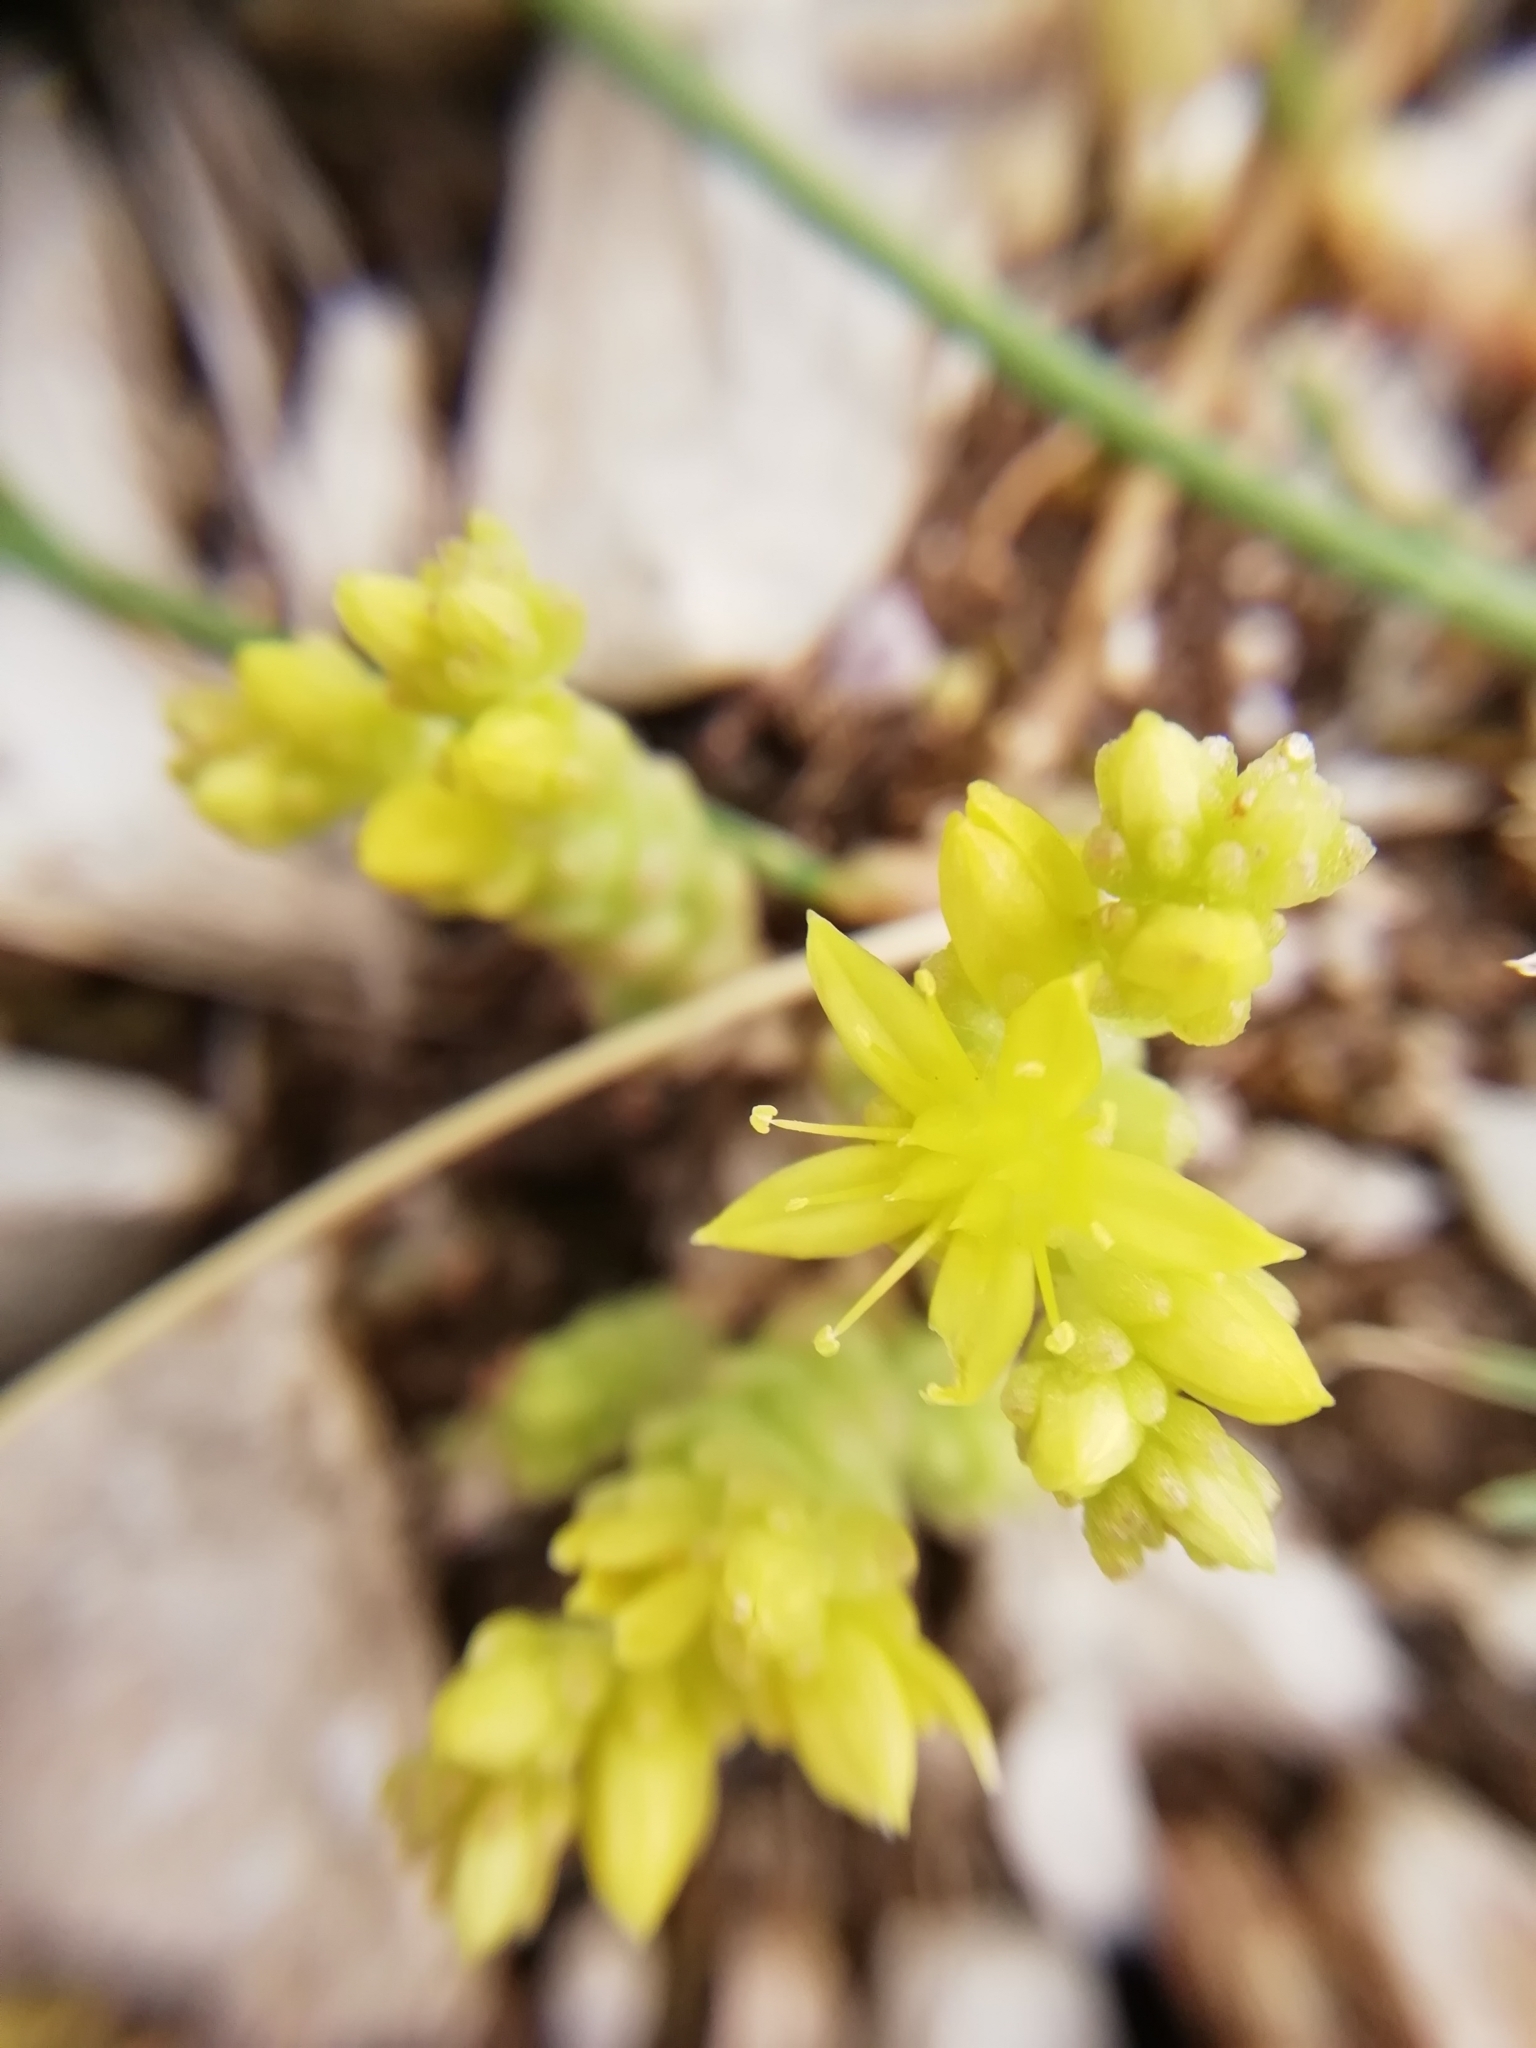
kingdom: Plantae
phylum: Tracheophyta
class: Magnoliopsida
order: Saxifragales
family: Crassulaceae
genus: Sedum
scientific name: Sedum acre
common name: Biting stonecrop
